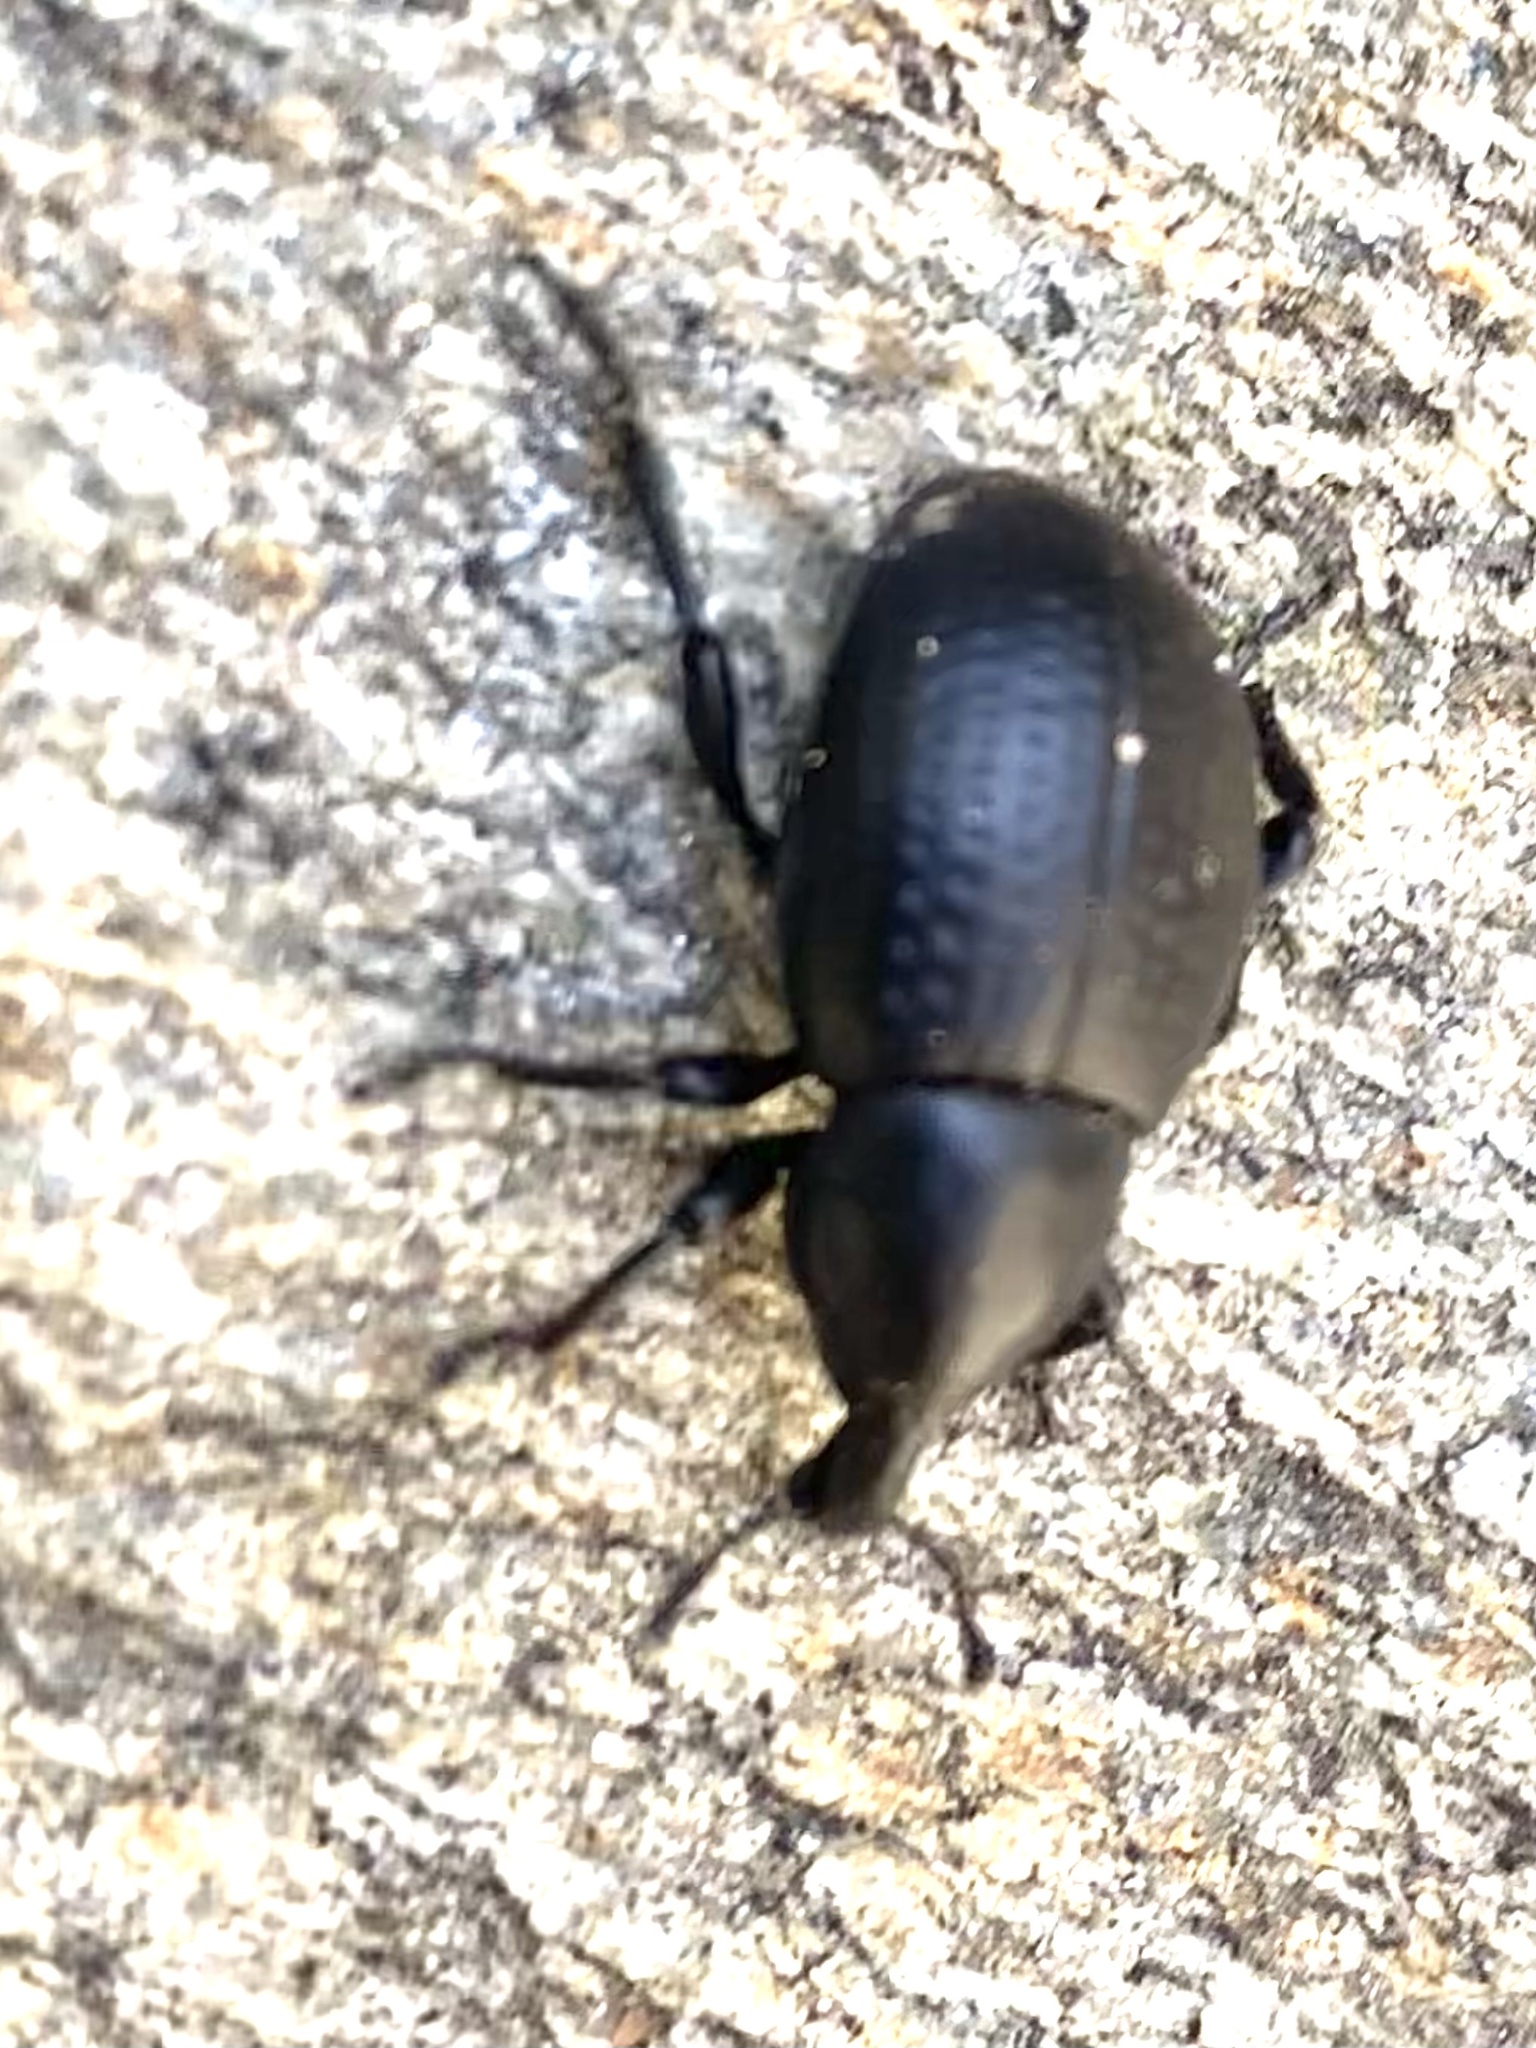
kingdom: Animalia
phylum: Arthropoda
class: Insecta
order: Coleoptera
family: Curculionidae
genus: Liparus
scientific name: Liparus tenebrioides
